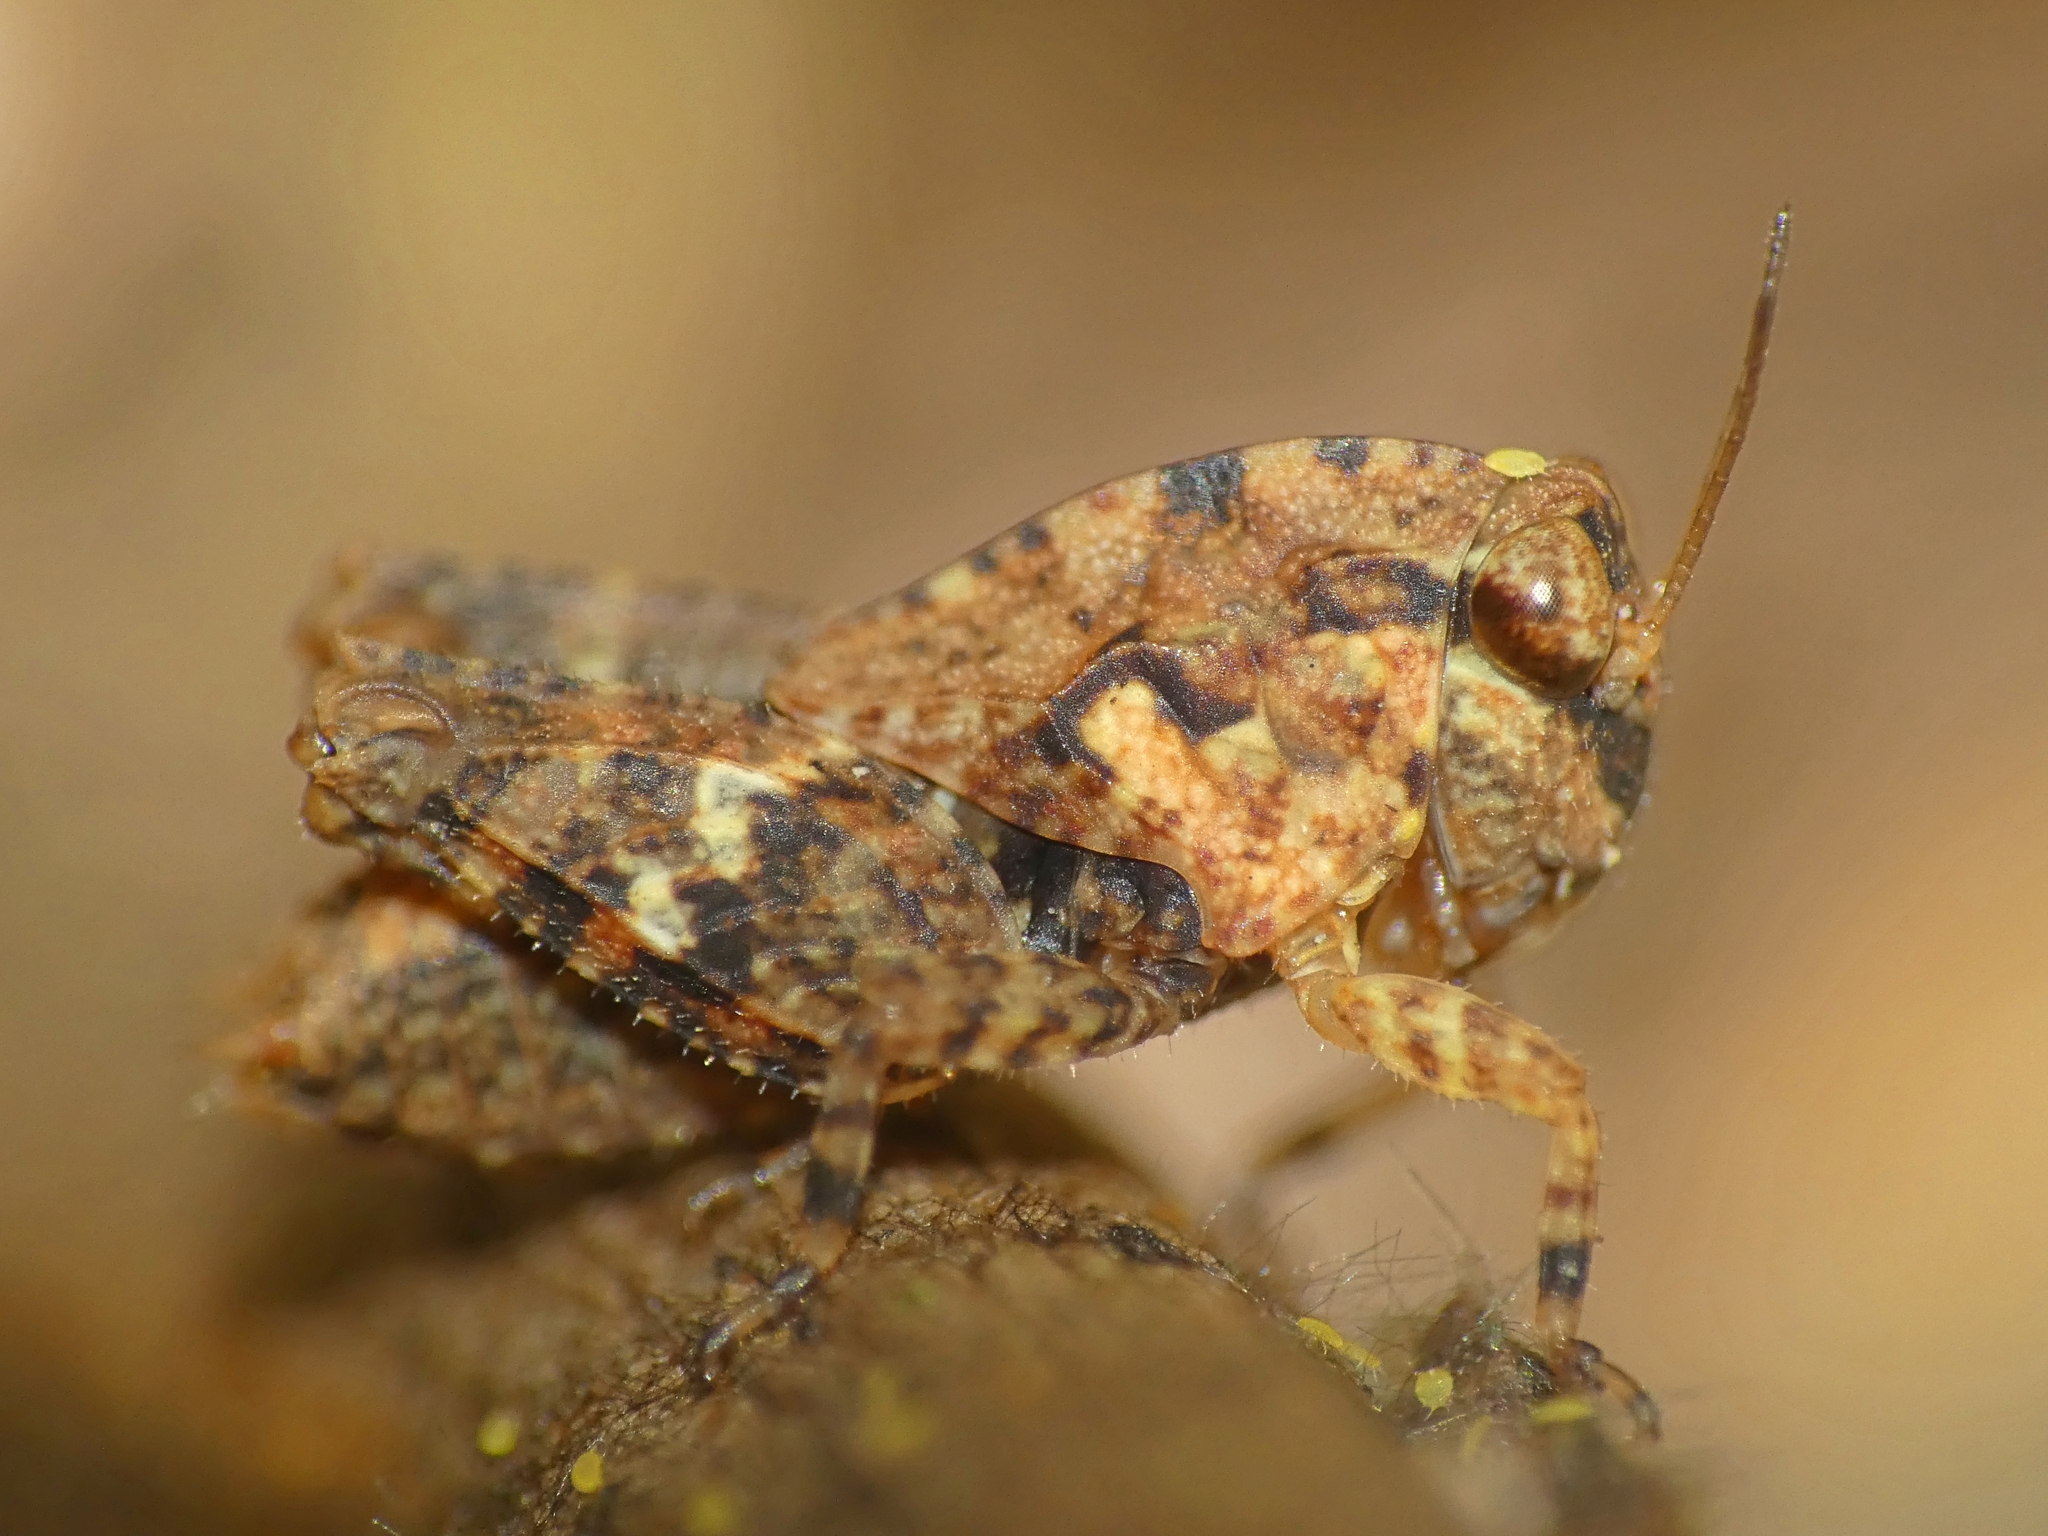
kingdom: Animalia
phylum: Arthropoda
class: Insecta
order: Orthoptera
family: Tetrigidae
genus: Selivinga
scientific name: Selivinga tribulata
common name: Tribulation helmed groundhopper
